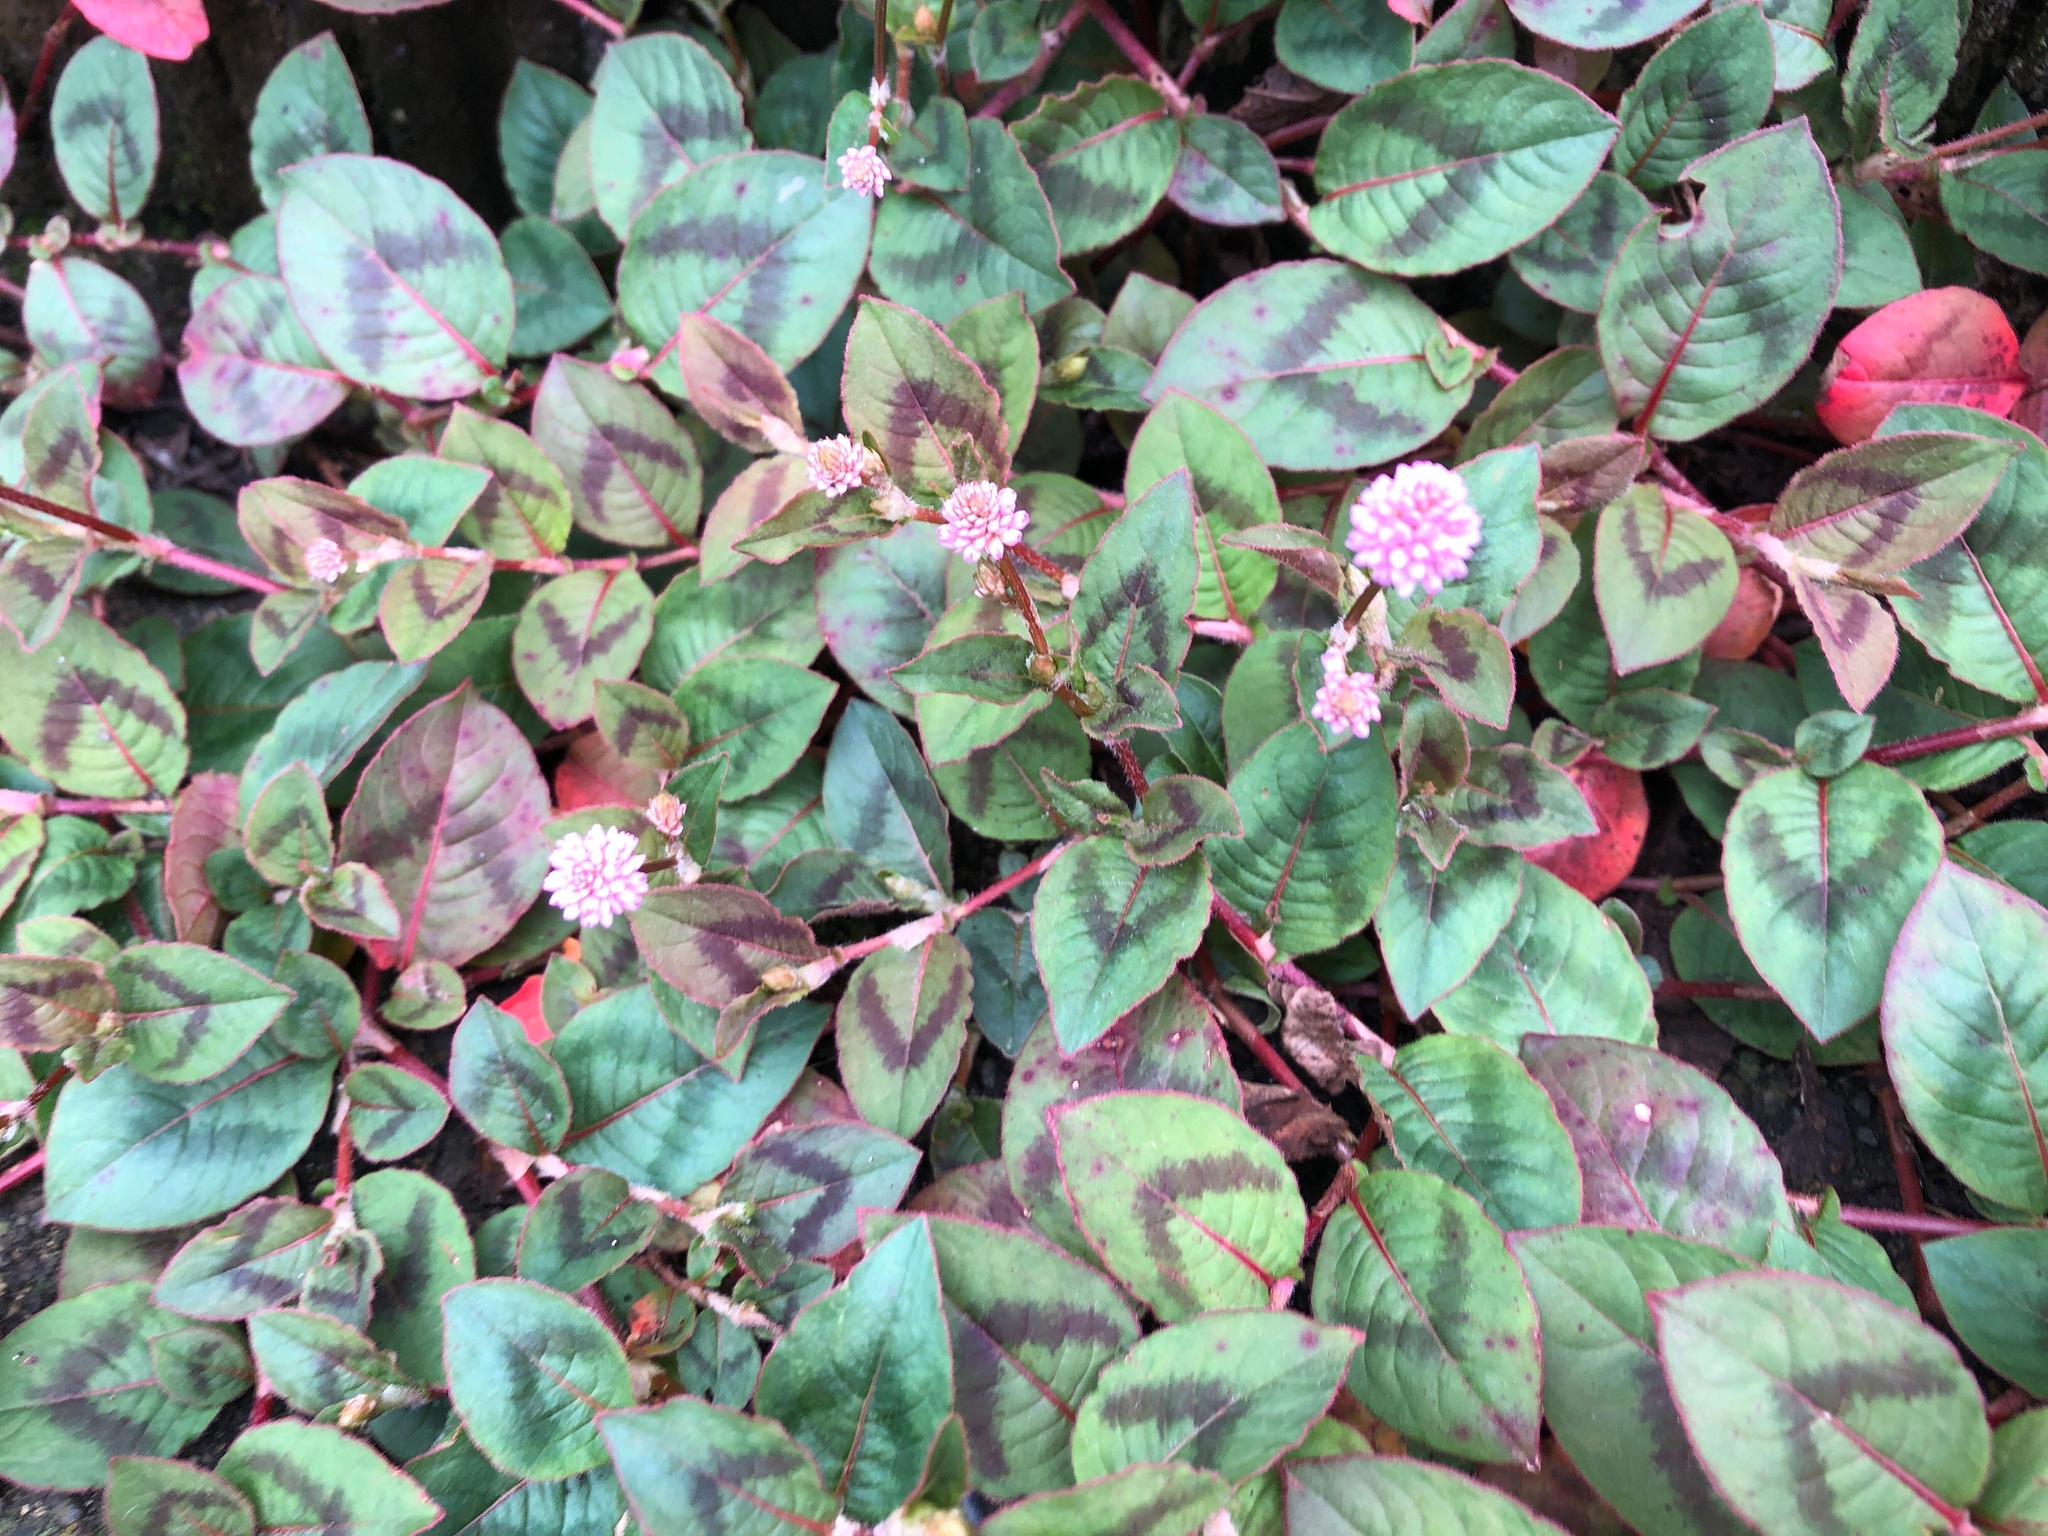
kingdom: Plantae
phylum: Tracheophyta
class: Magnoliopsida
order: Caryophyllales
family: Polygonaceae
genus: Persicaria
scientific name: Persicaria capitata
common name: Pinkhead smartweed
